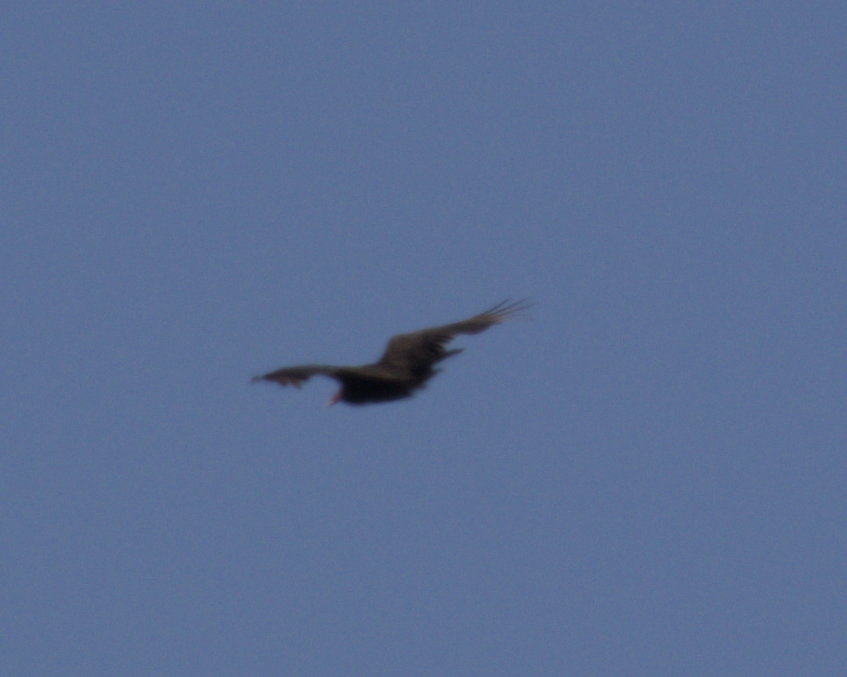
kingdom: Animalia
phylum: Chordata
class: Aves
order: Accipitriformes
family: Cathartidae
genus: Cathartes
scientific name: Cathartes aura
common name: Turkey vulture
